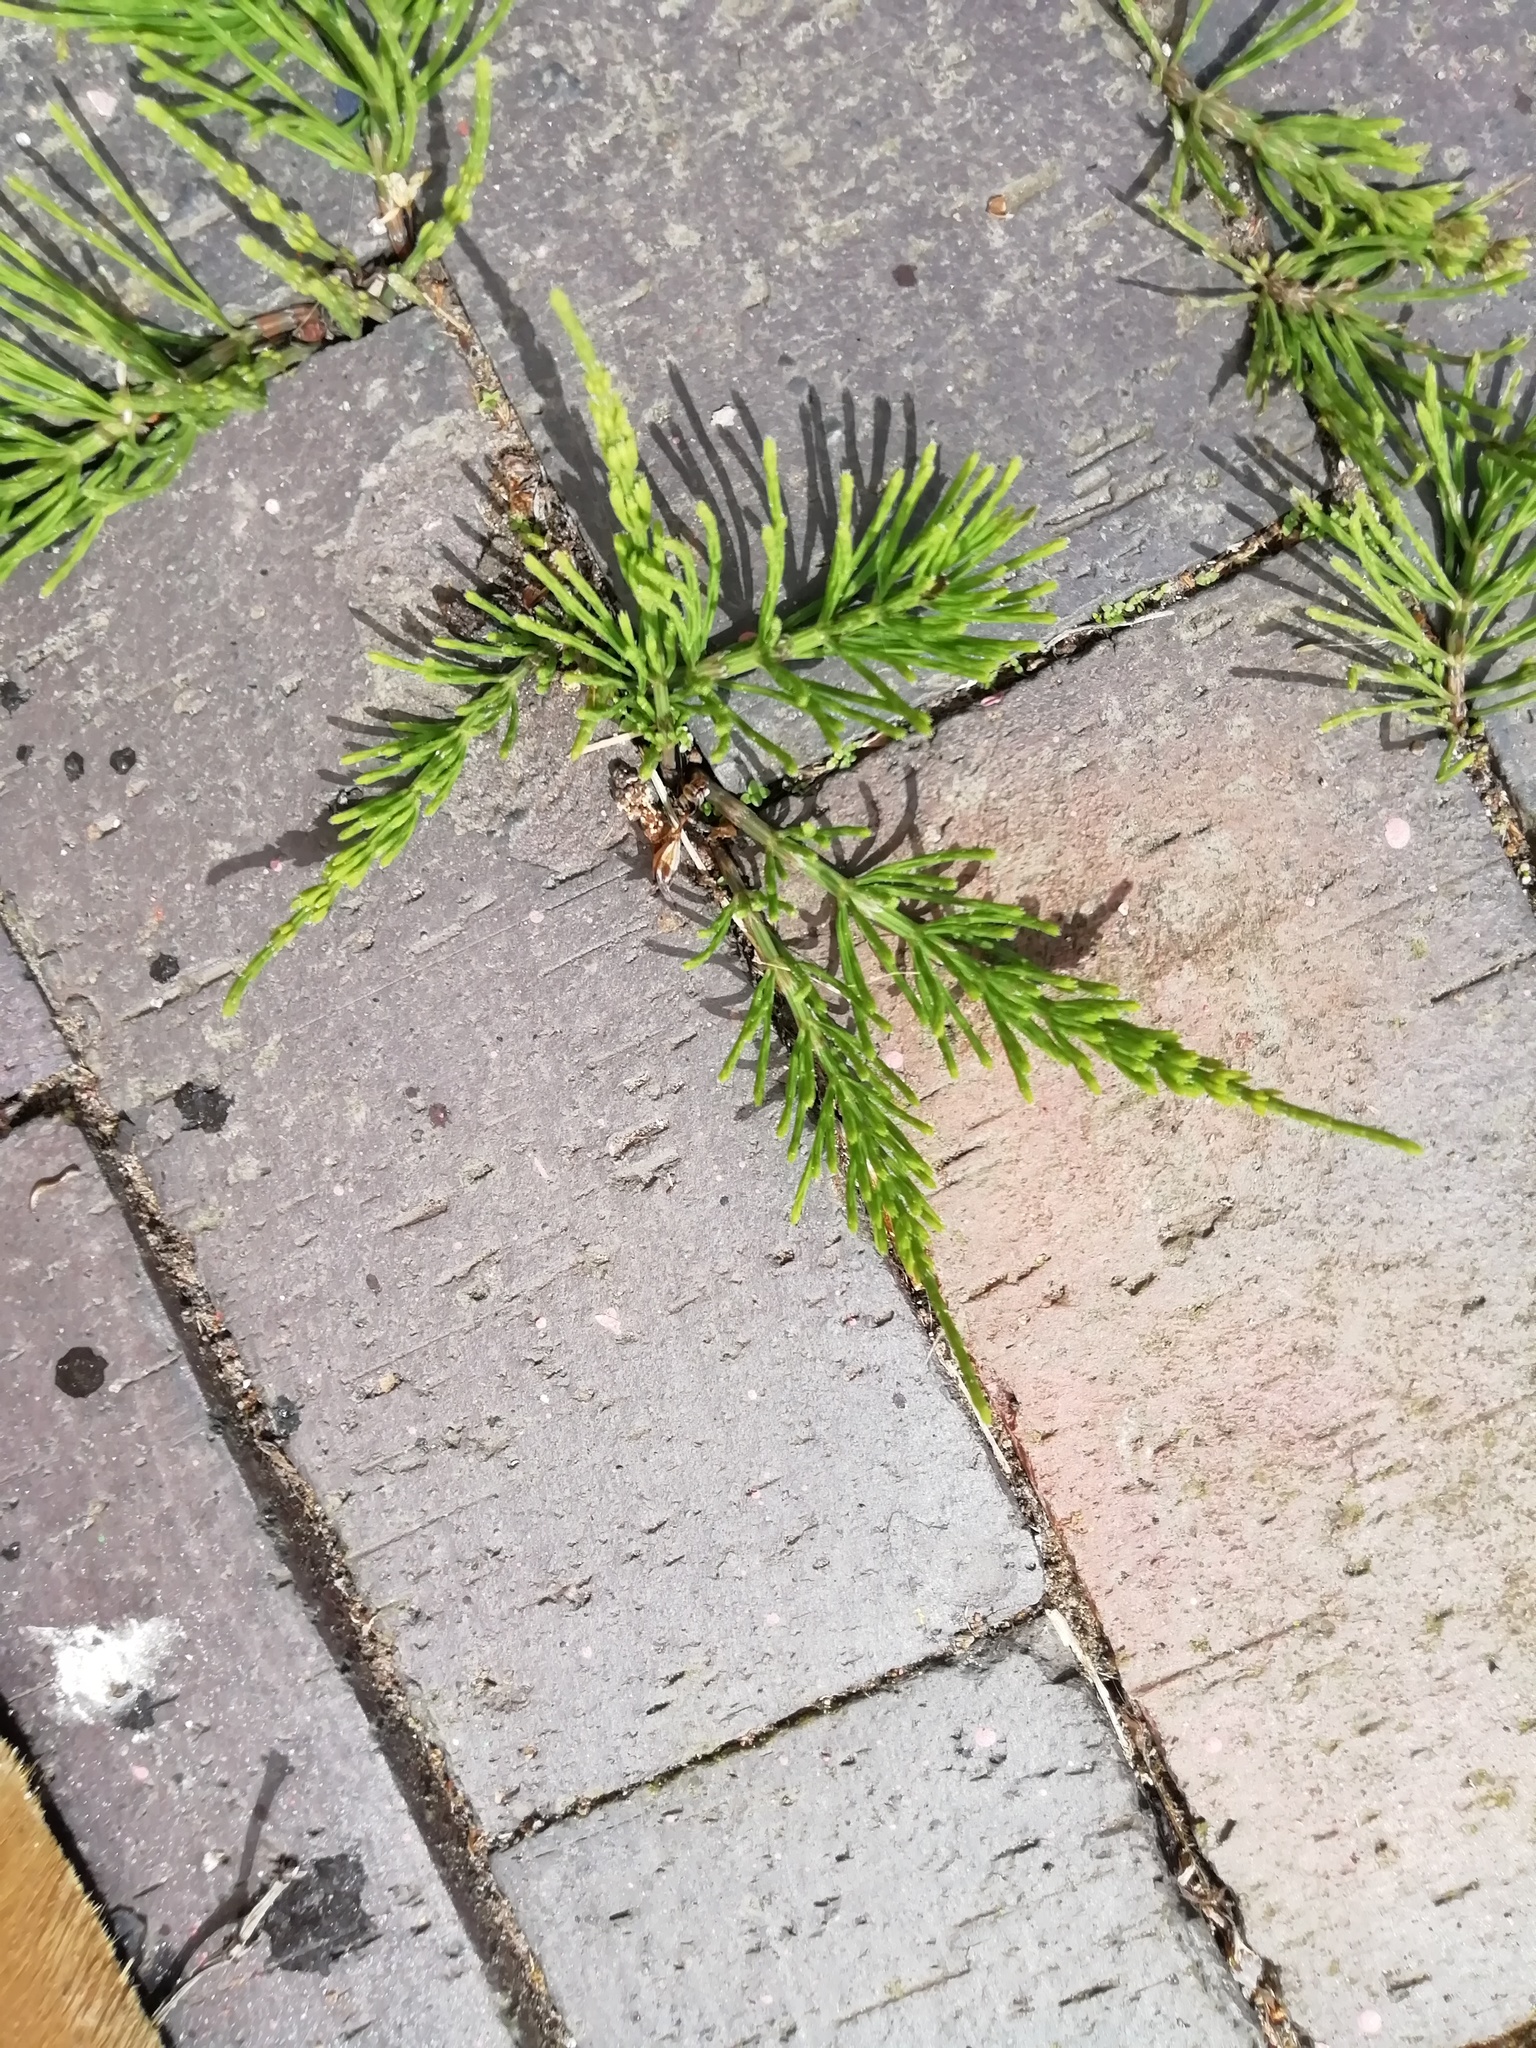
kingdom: Plantae
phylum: Tracheophyta
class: Polypodiopsida
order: Equisetales
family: Equisetaceae
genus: Equisetum
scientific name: Equisetum arvense
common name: Field horsetail
